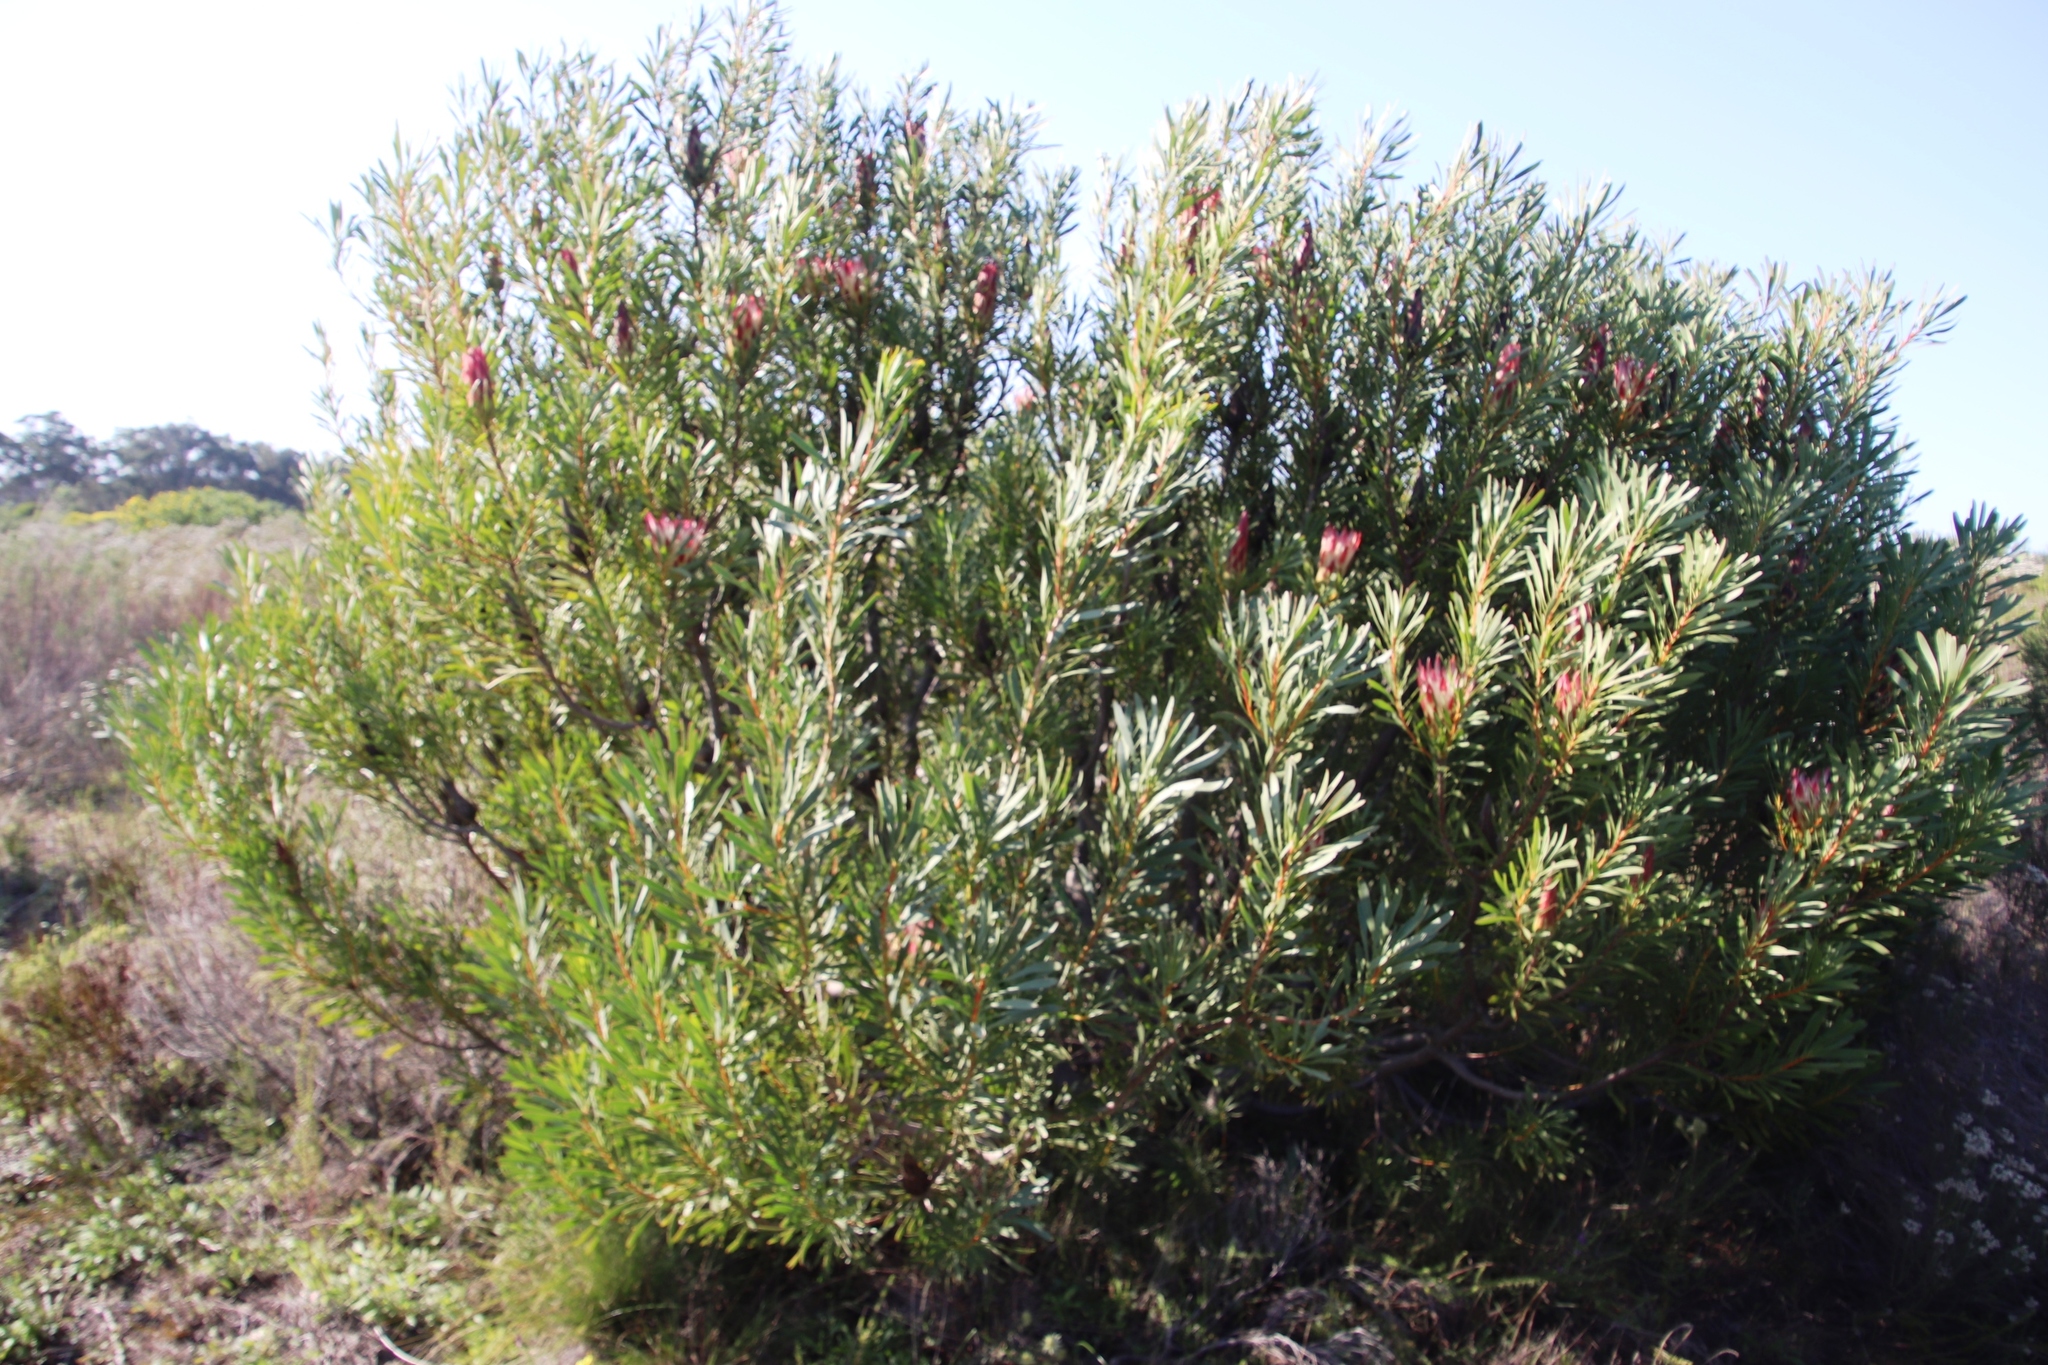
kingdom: Plantae
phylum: Tracheophyta
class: Magnoliopsida
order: Proteales
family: Proteaceae
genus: Protea
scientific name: Protea repens
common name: Sugarbush
